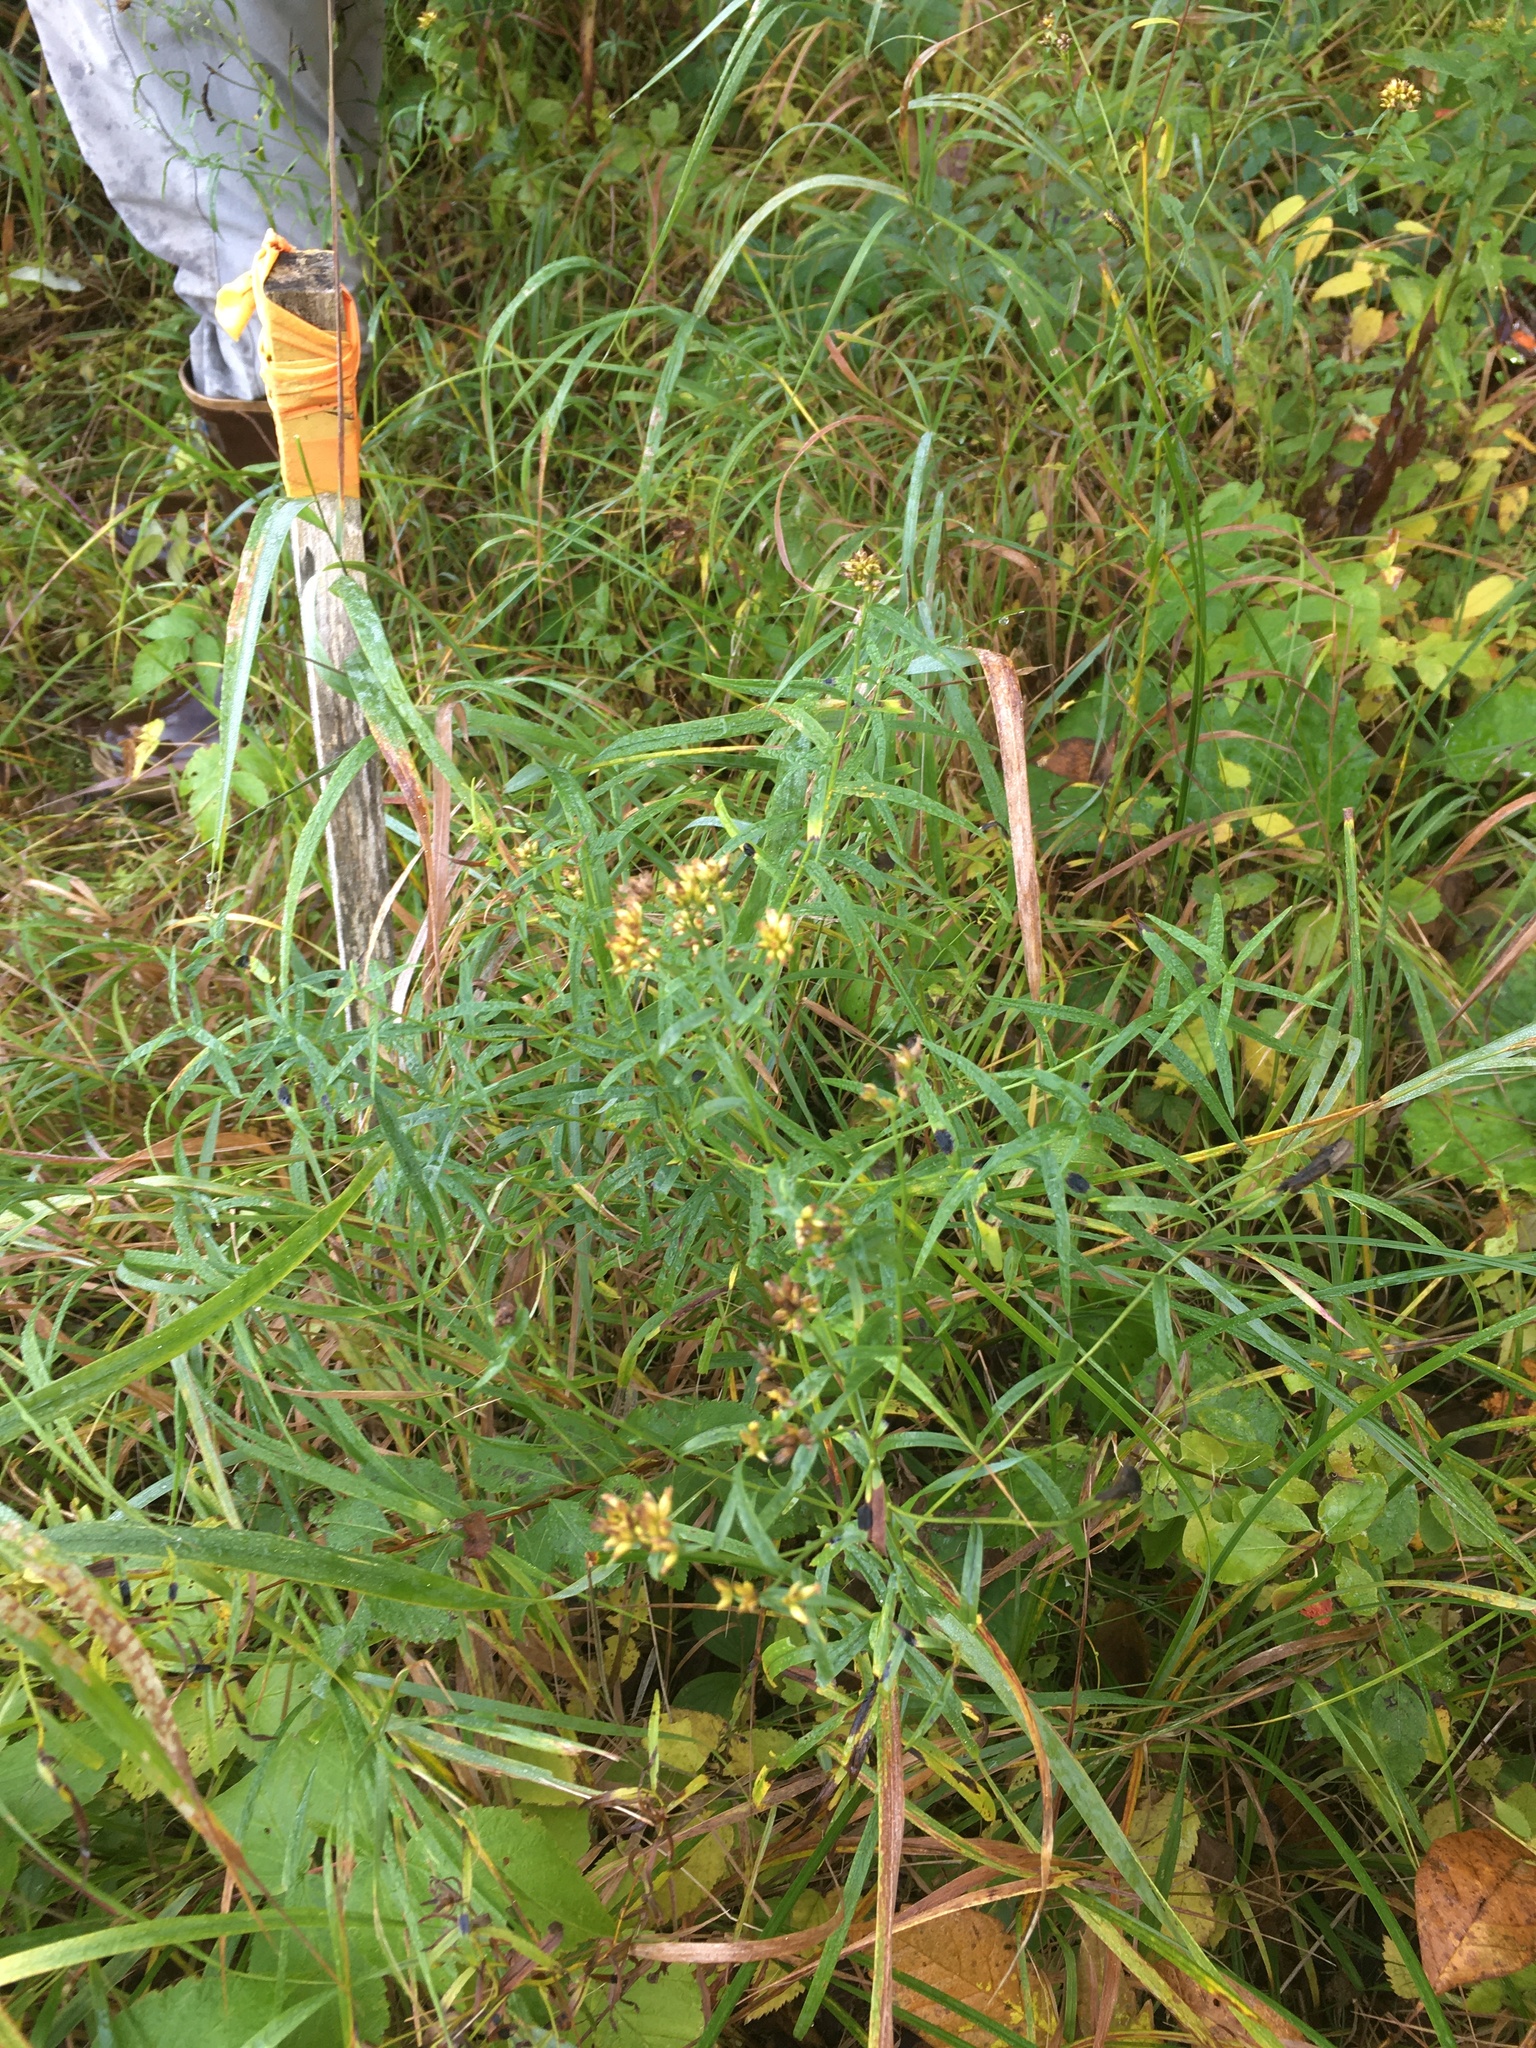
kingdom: Plantae
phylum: Tracheophyta
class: Magnoliopsida
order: Asterales
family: Asteraceae
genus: Euthamia
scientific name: Euthamia graminifolia
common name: Common goldentop
